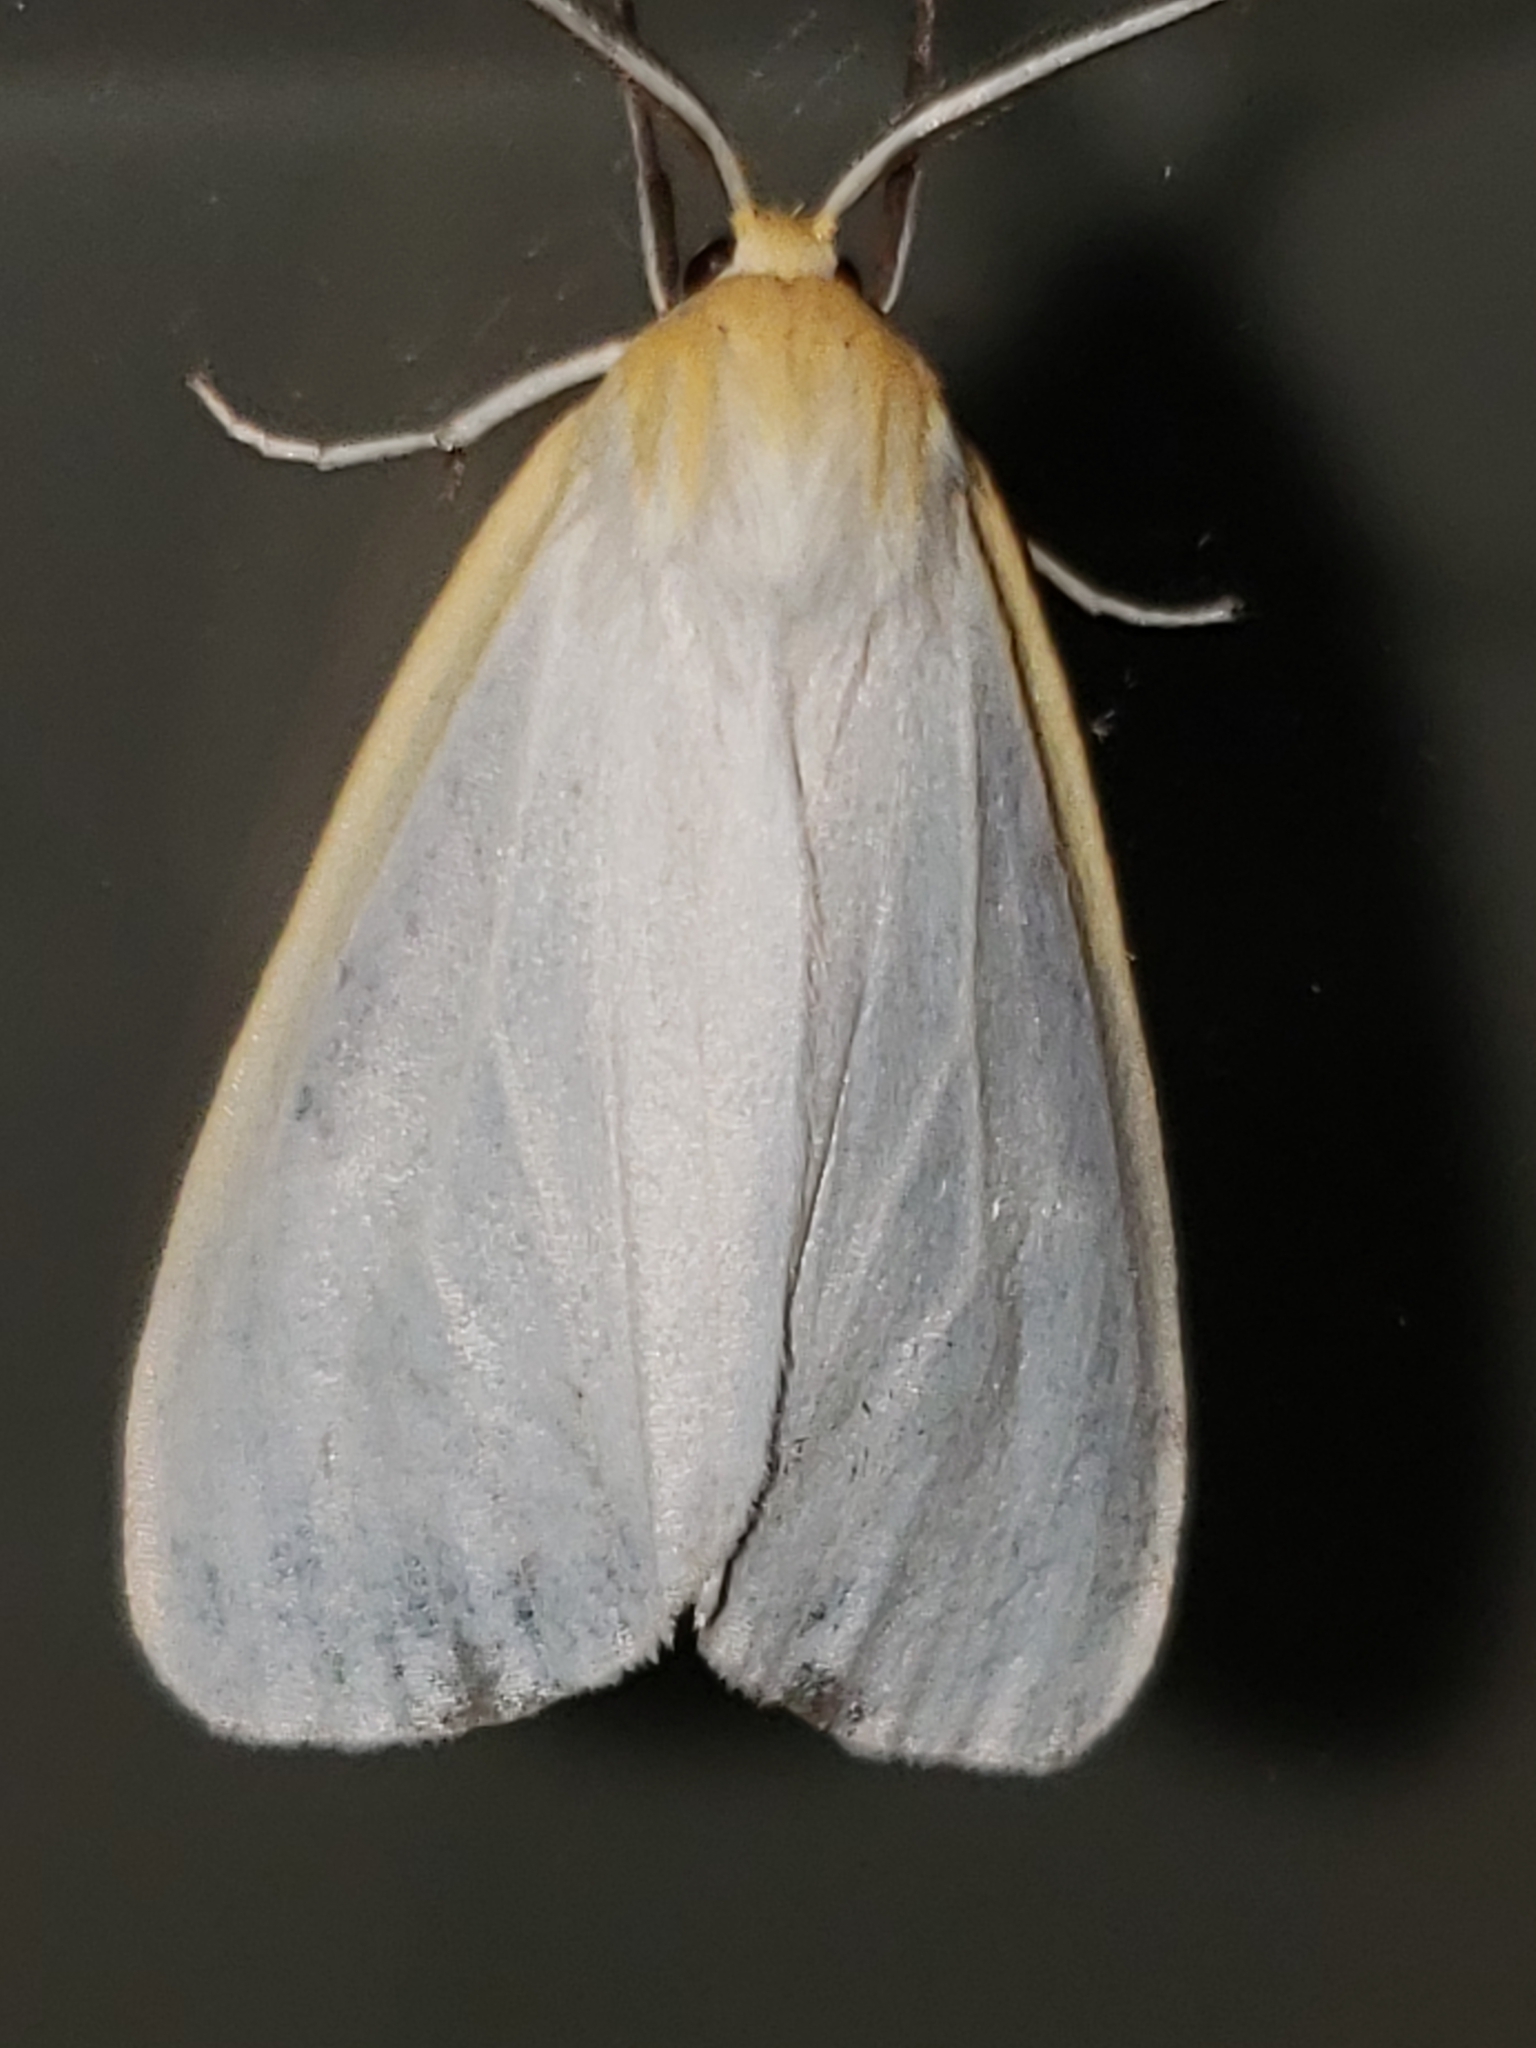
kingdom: Animalia
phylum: Arthropoda
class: Insecta
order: Lepidoptera
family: Erebidae
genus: Cycnia
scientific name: Cycnia tenera
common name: Delicate cycnia moth
